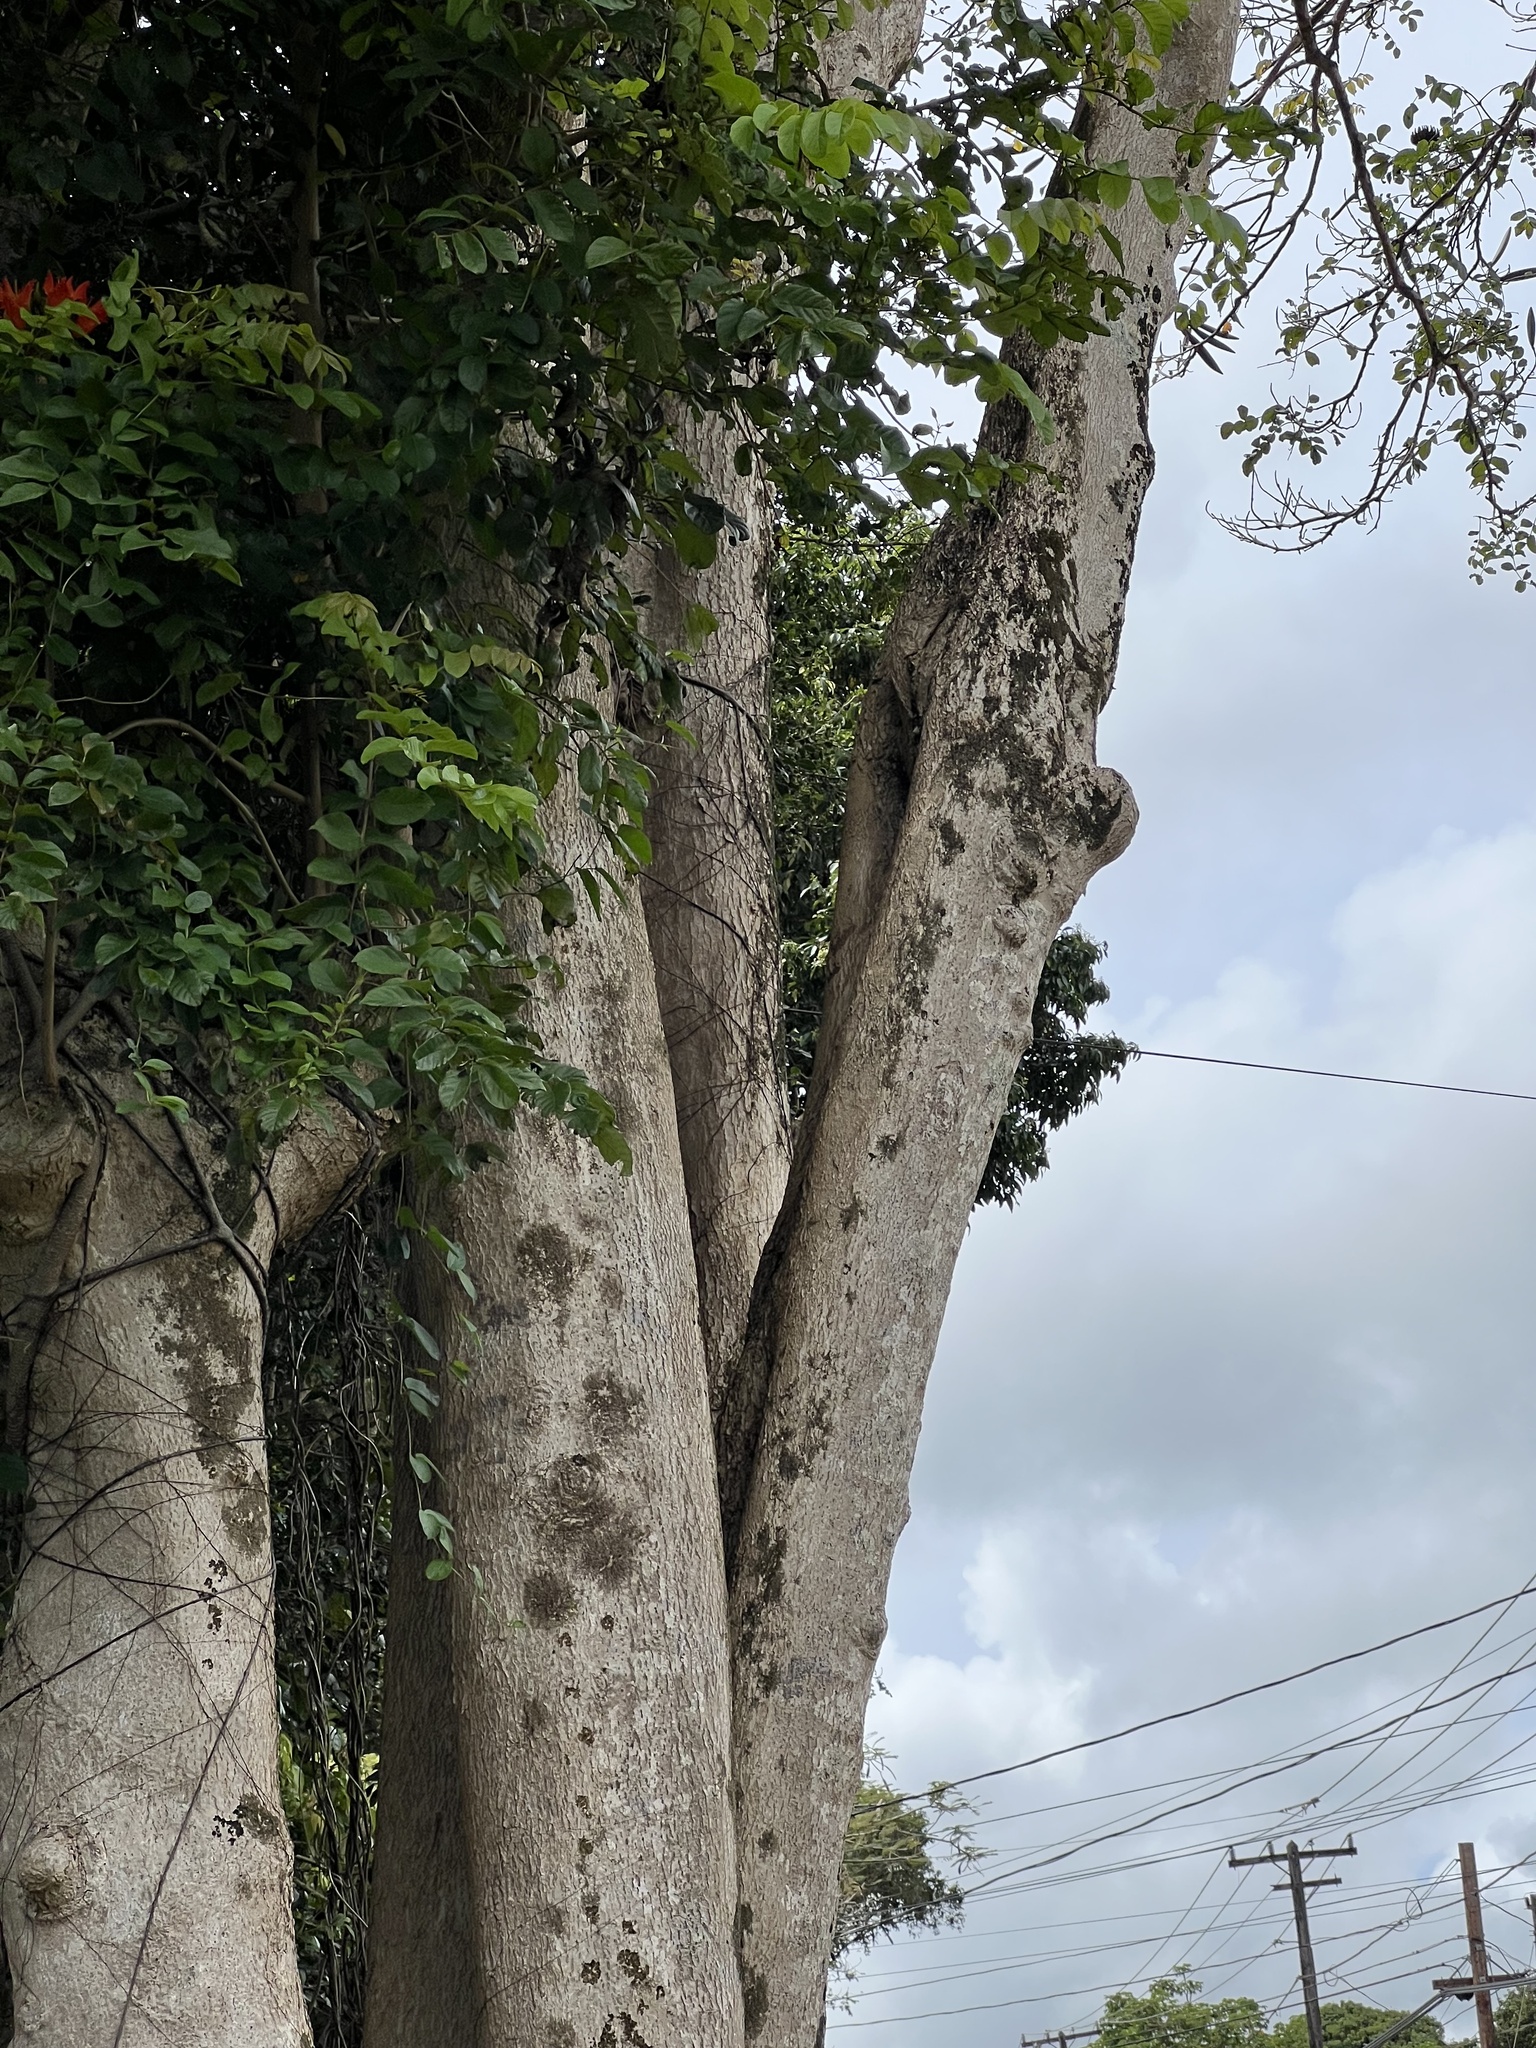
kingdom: Plantae
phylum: Tracheophyta
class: Magnoliopsida
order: Lamiales
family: Bignoniaceae
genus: Spathodea
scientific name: Spathodea campanulata
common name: African tuliptree
